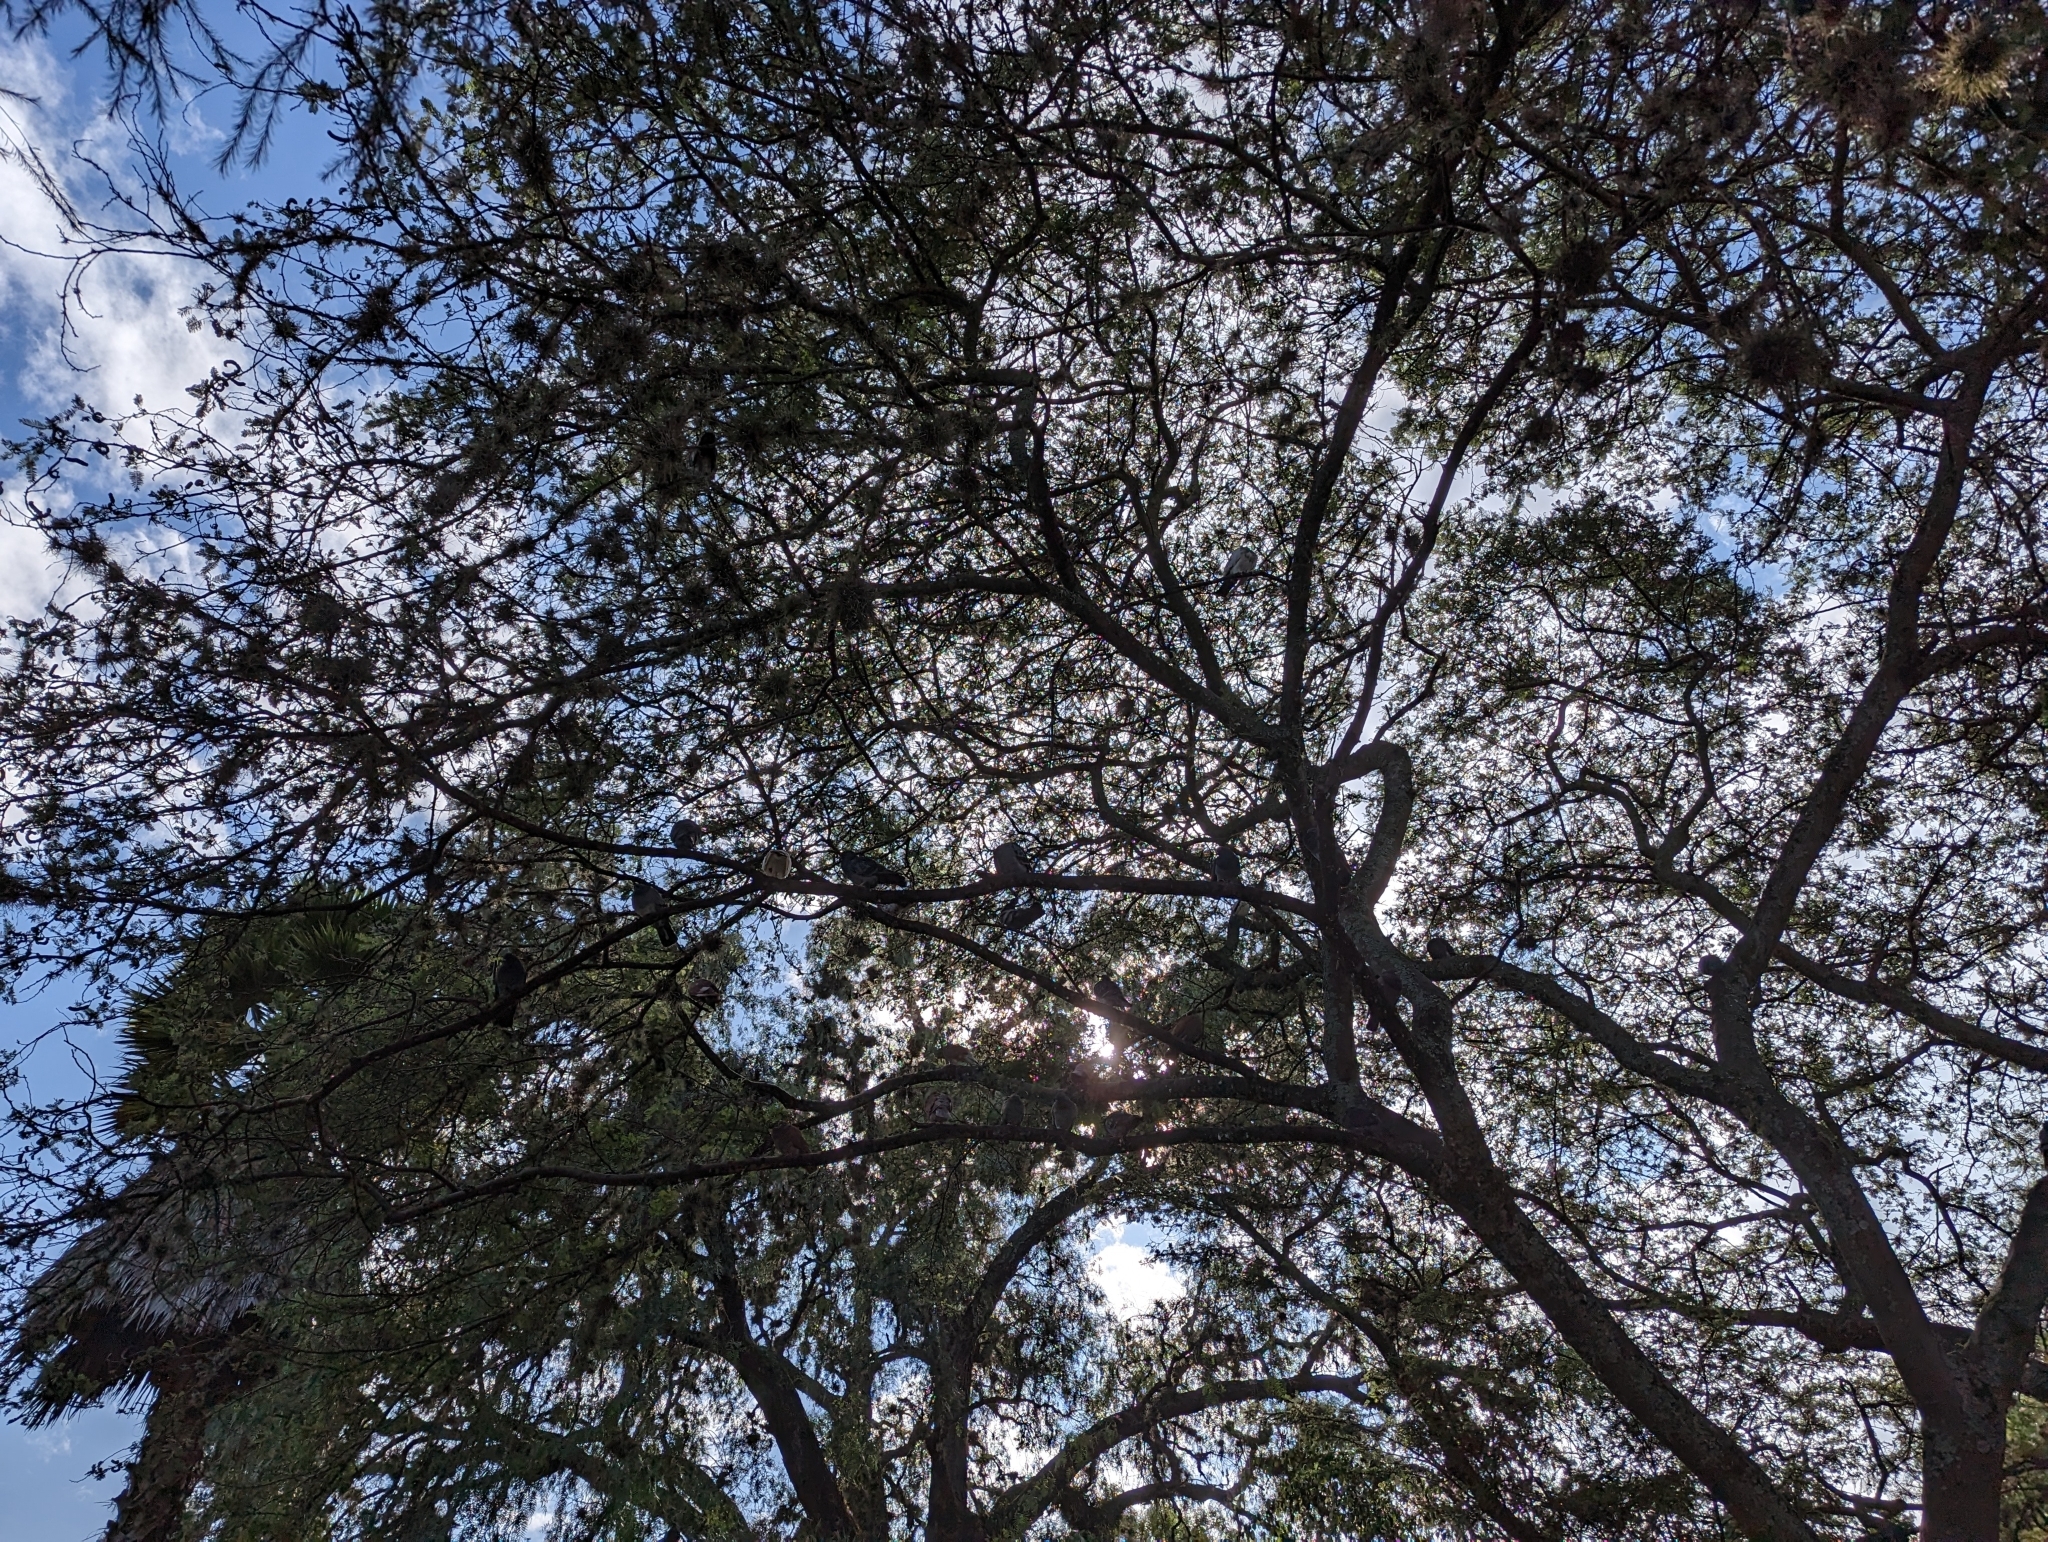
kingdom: Animalia
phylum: Chordata
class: Aves
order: Columbiformes
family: Columbidae
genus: Columba
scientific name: Columba livia
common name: Rock pigeon
